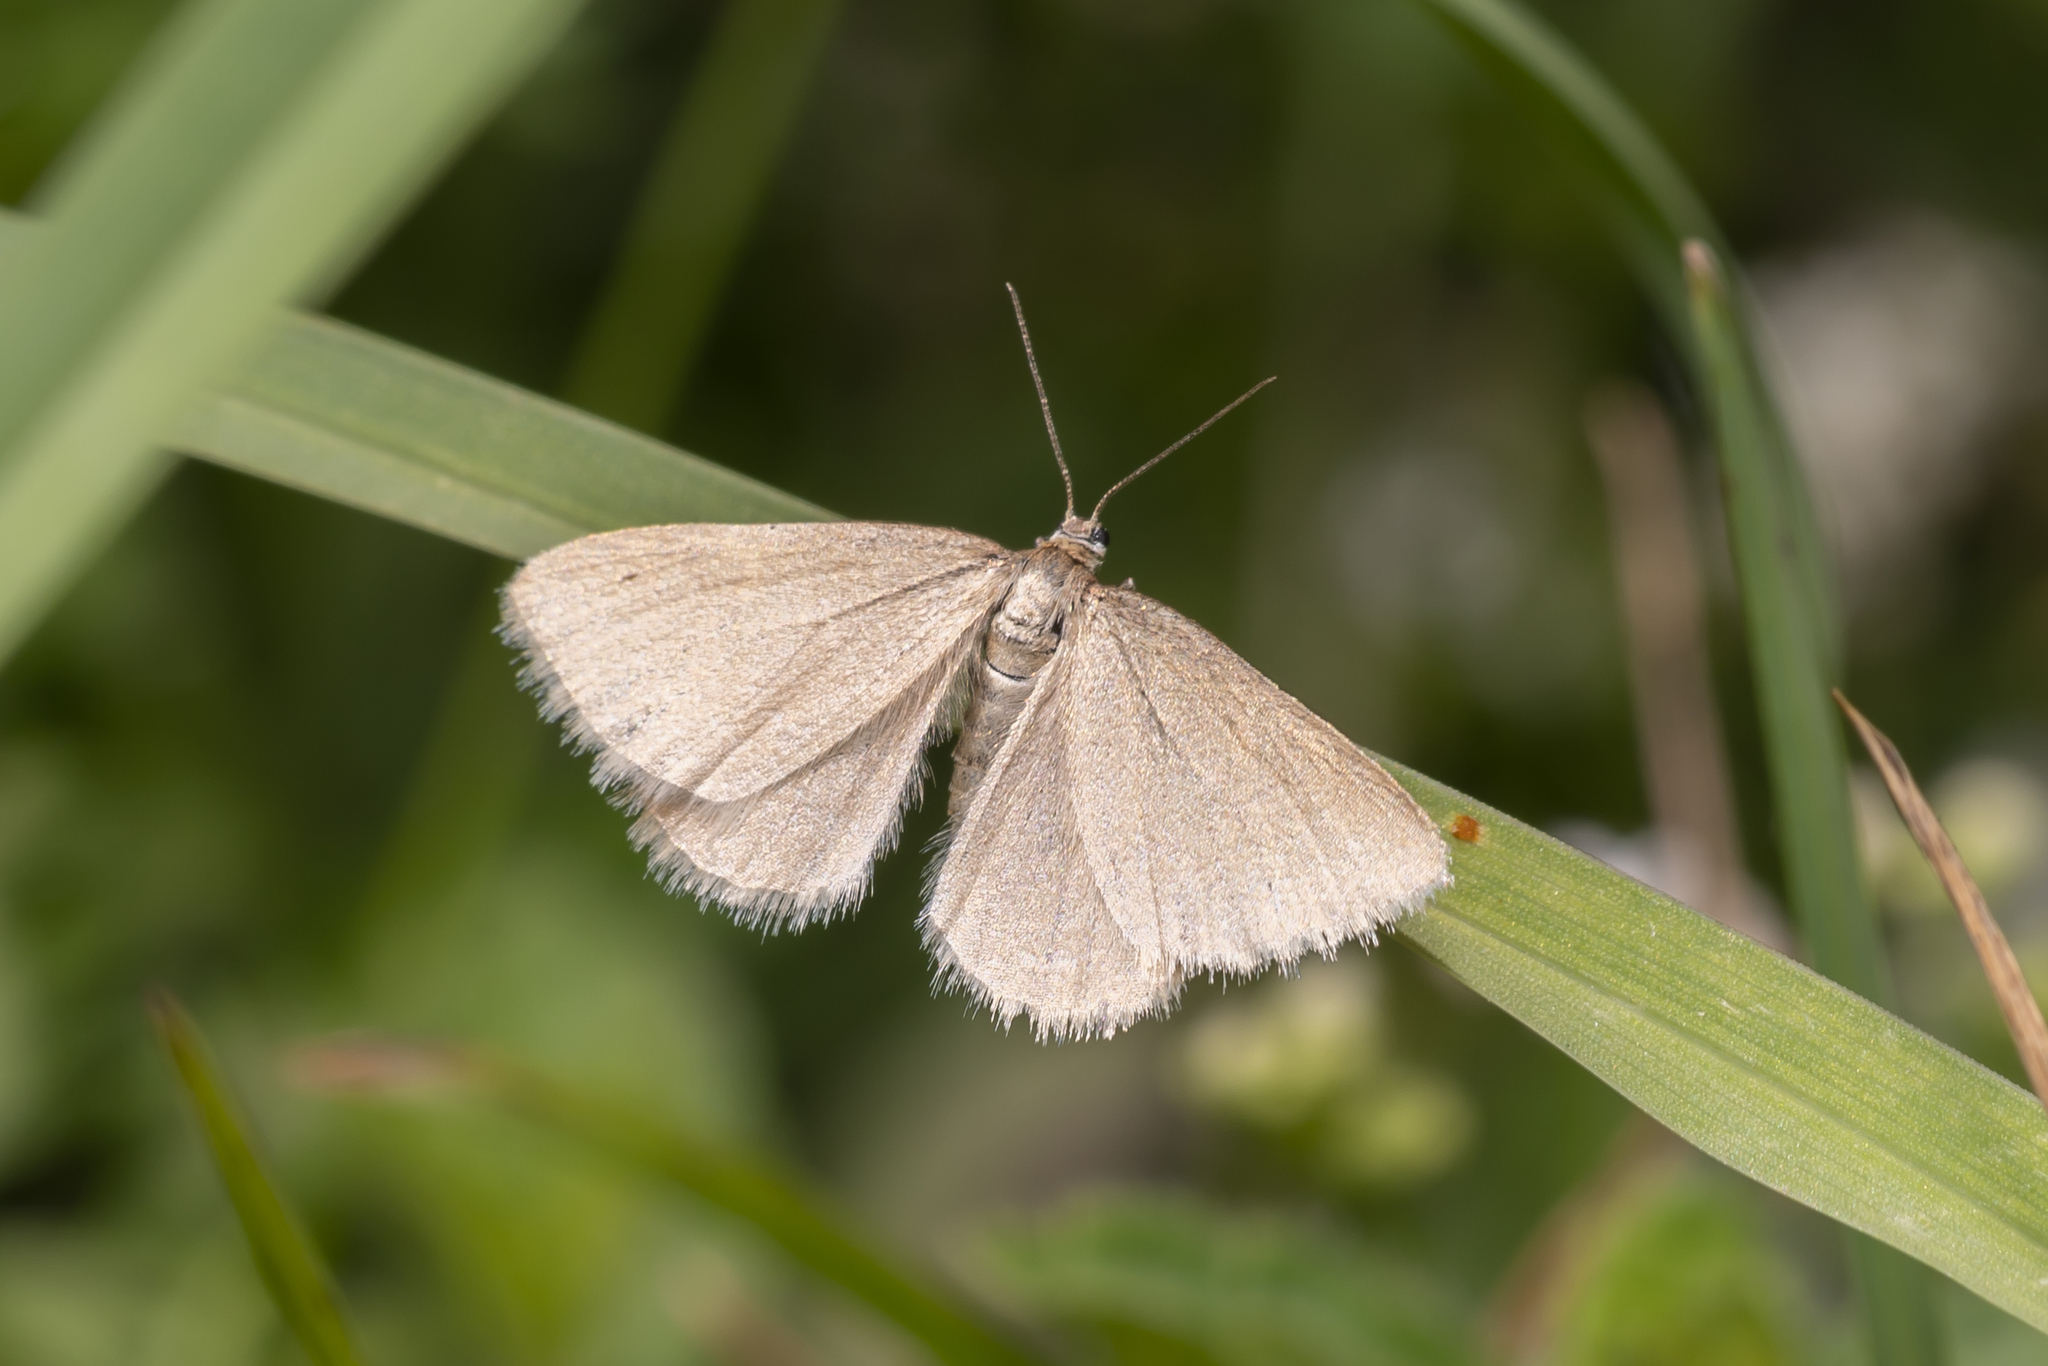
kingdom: Animalia
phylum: Arthropoda
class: Insecta
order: Lepidoptera
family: Geometridae
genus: Minoa
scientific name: Minoa murinata
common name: Drab looper
